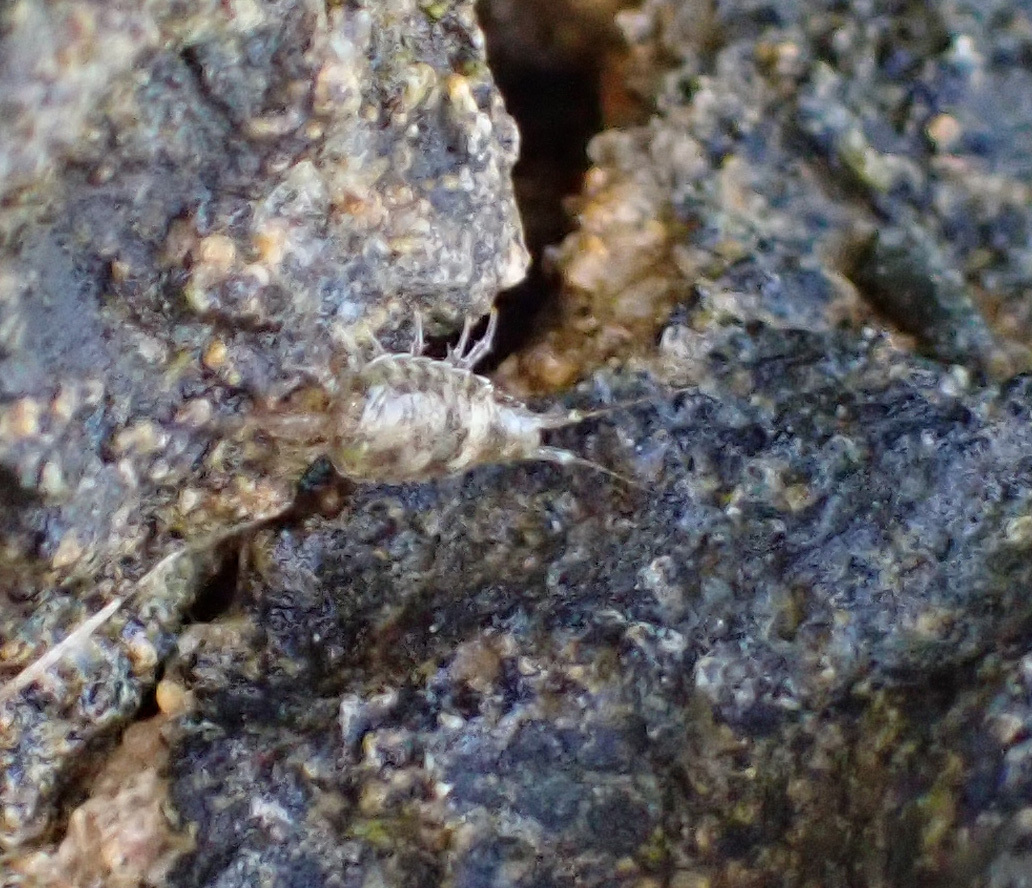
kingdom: Animalia
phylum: Arthropoda
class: Malacostraca
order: Isopoda
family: Ligiidae
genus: Ligia
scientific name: Ligia italica
